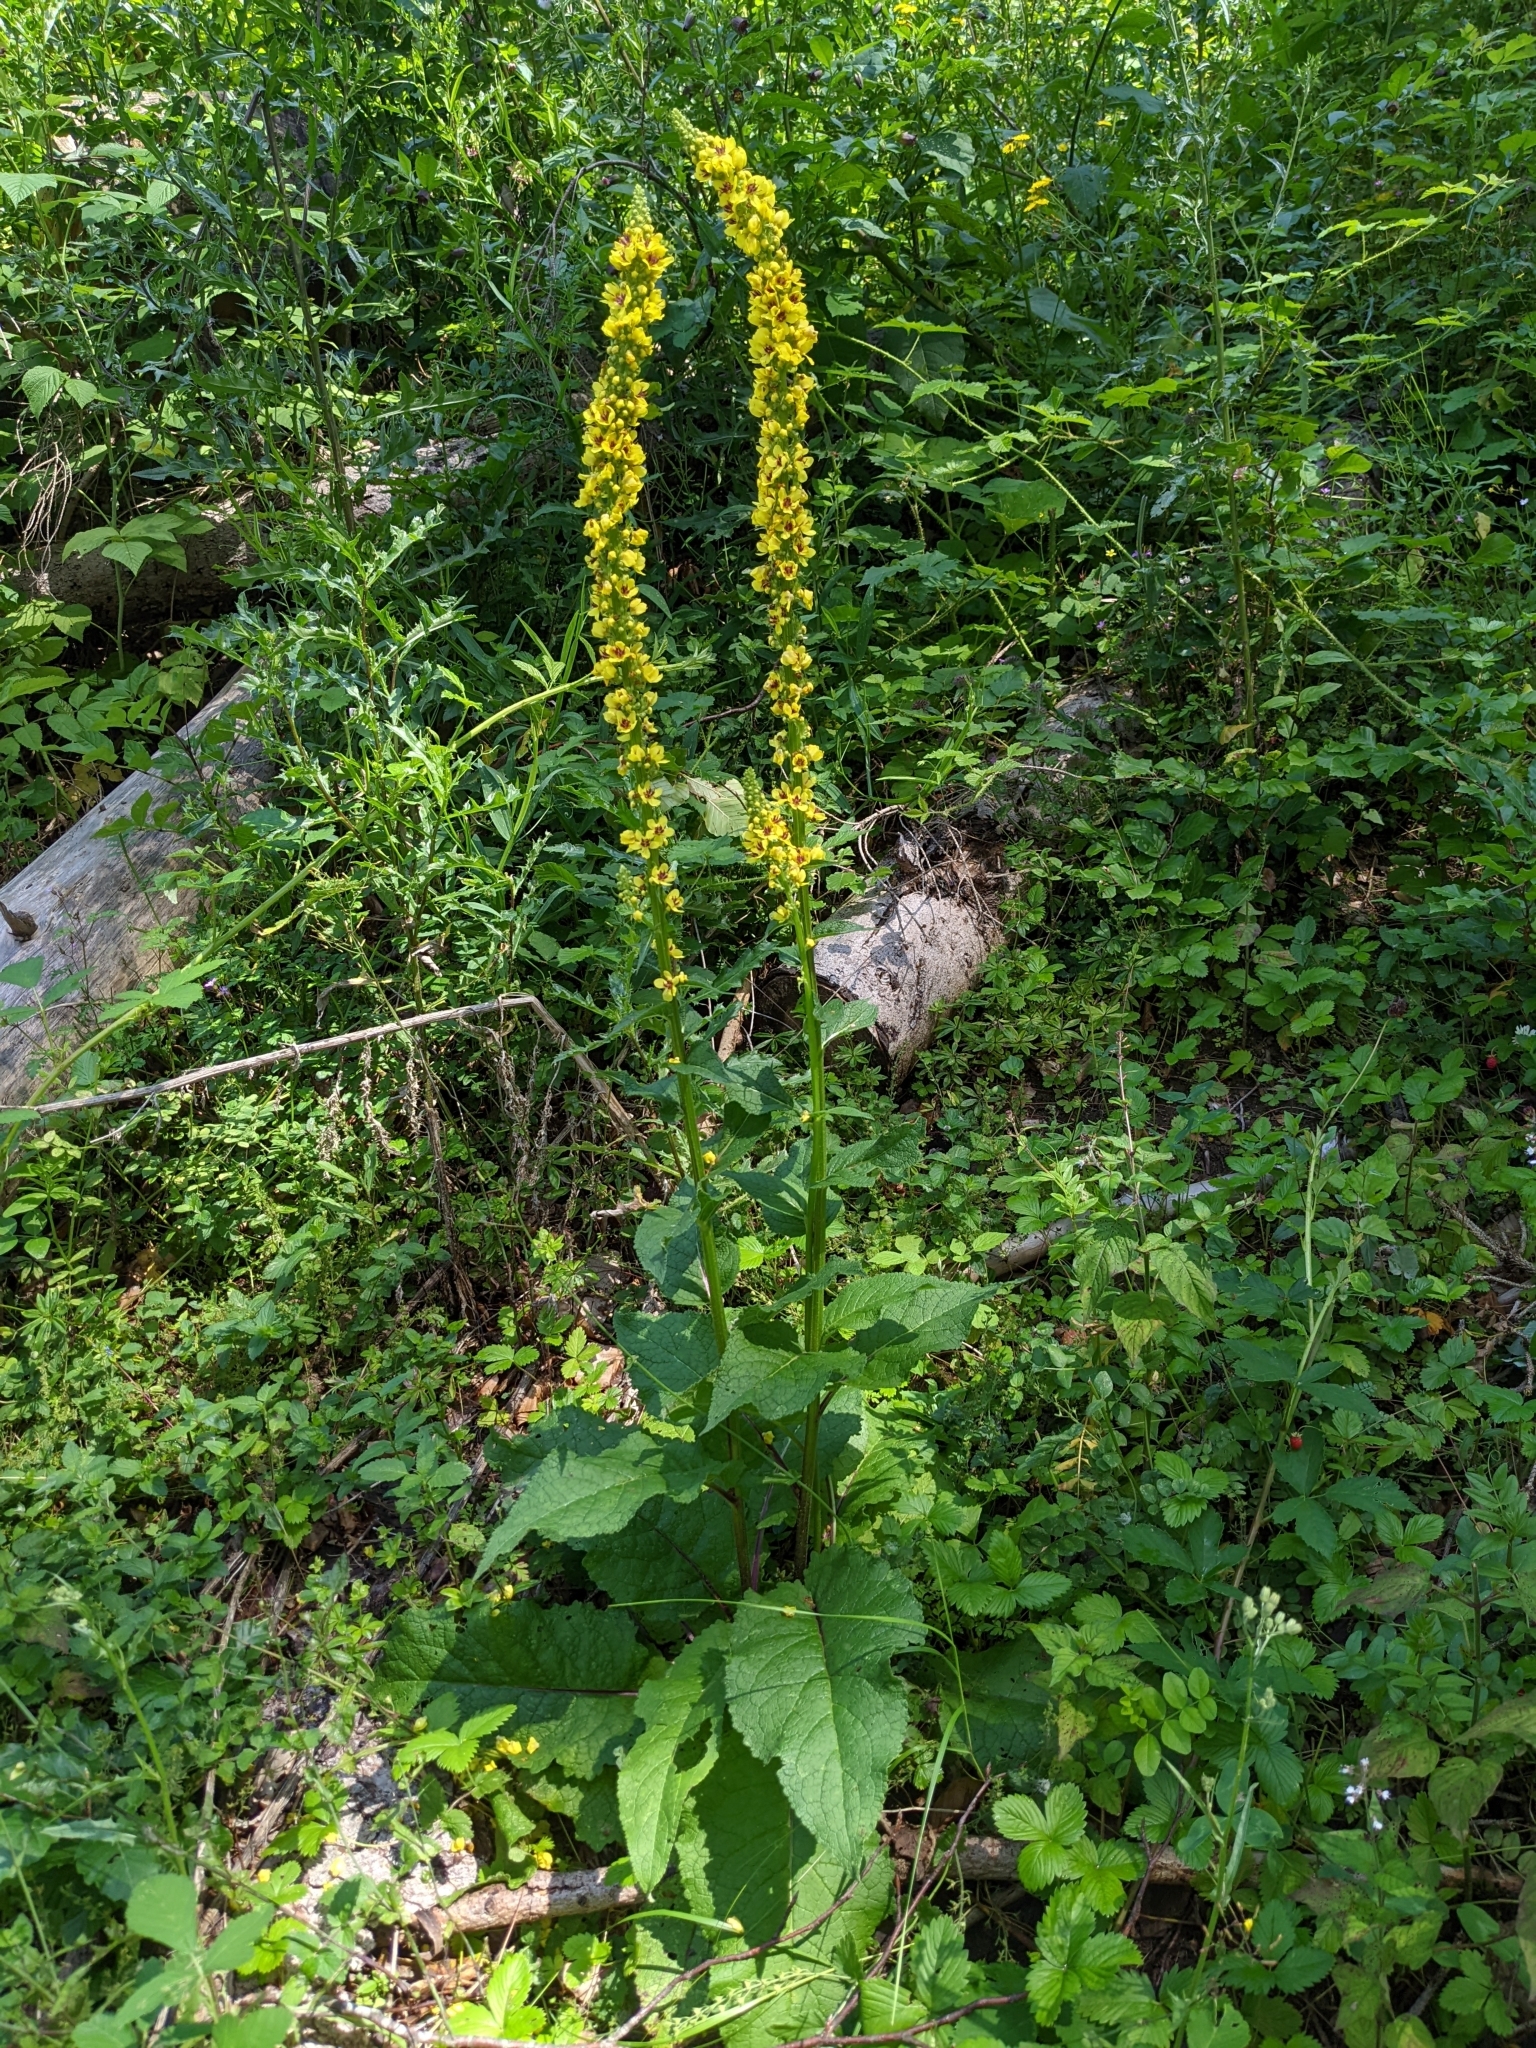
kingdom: Plantae
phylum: Tracheophyta
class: Magnoliopsida
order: Lamiales
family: Scrophulariaceae
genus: Verbascum
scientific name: Verbascum nigrum
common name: Dark mullein
